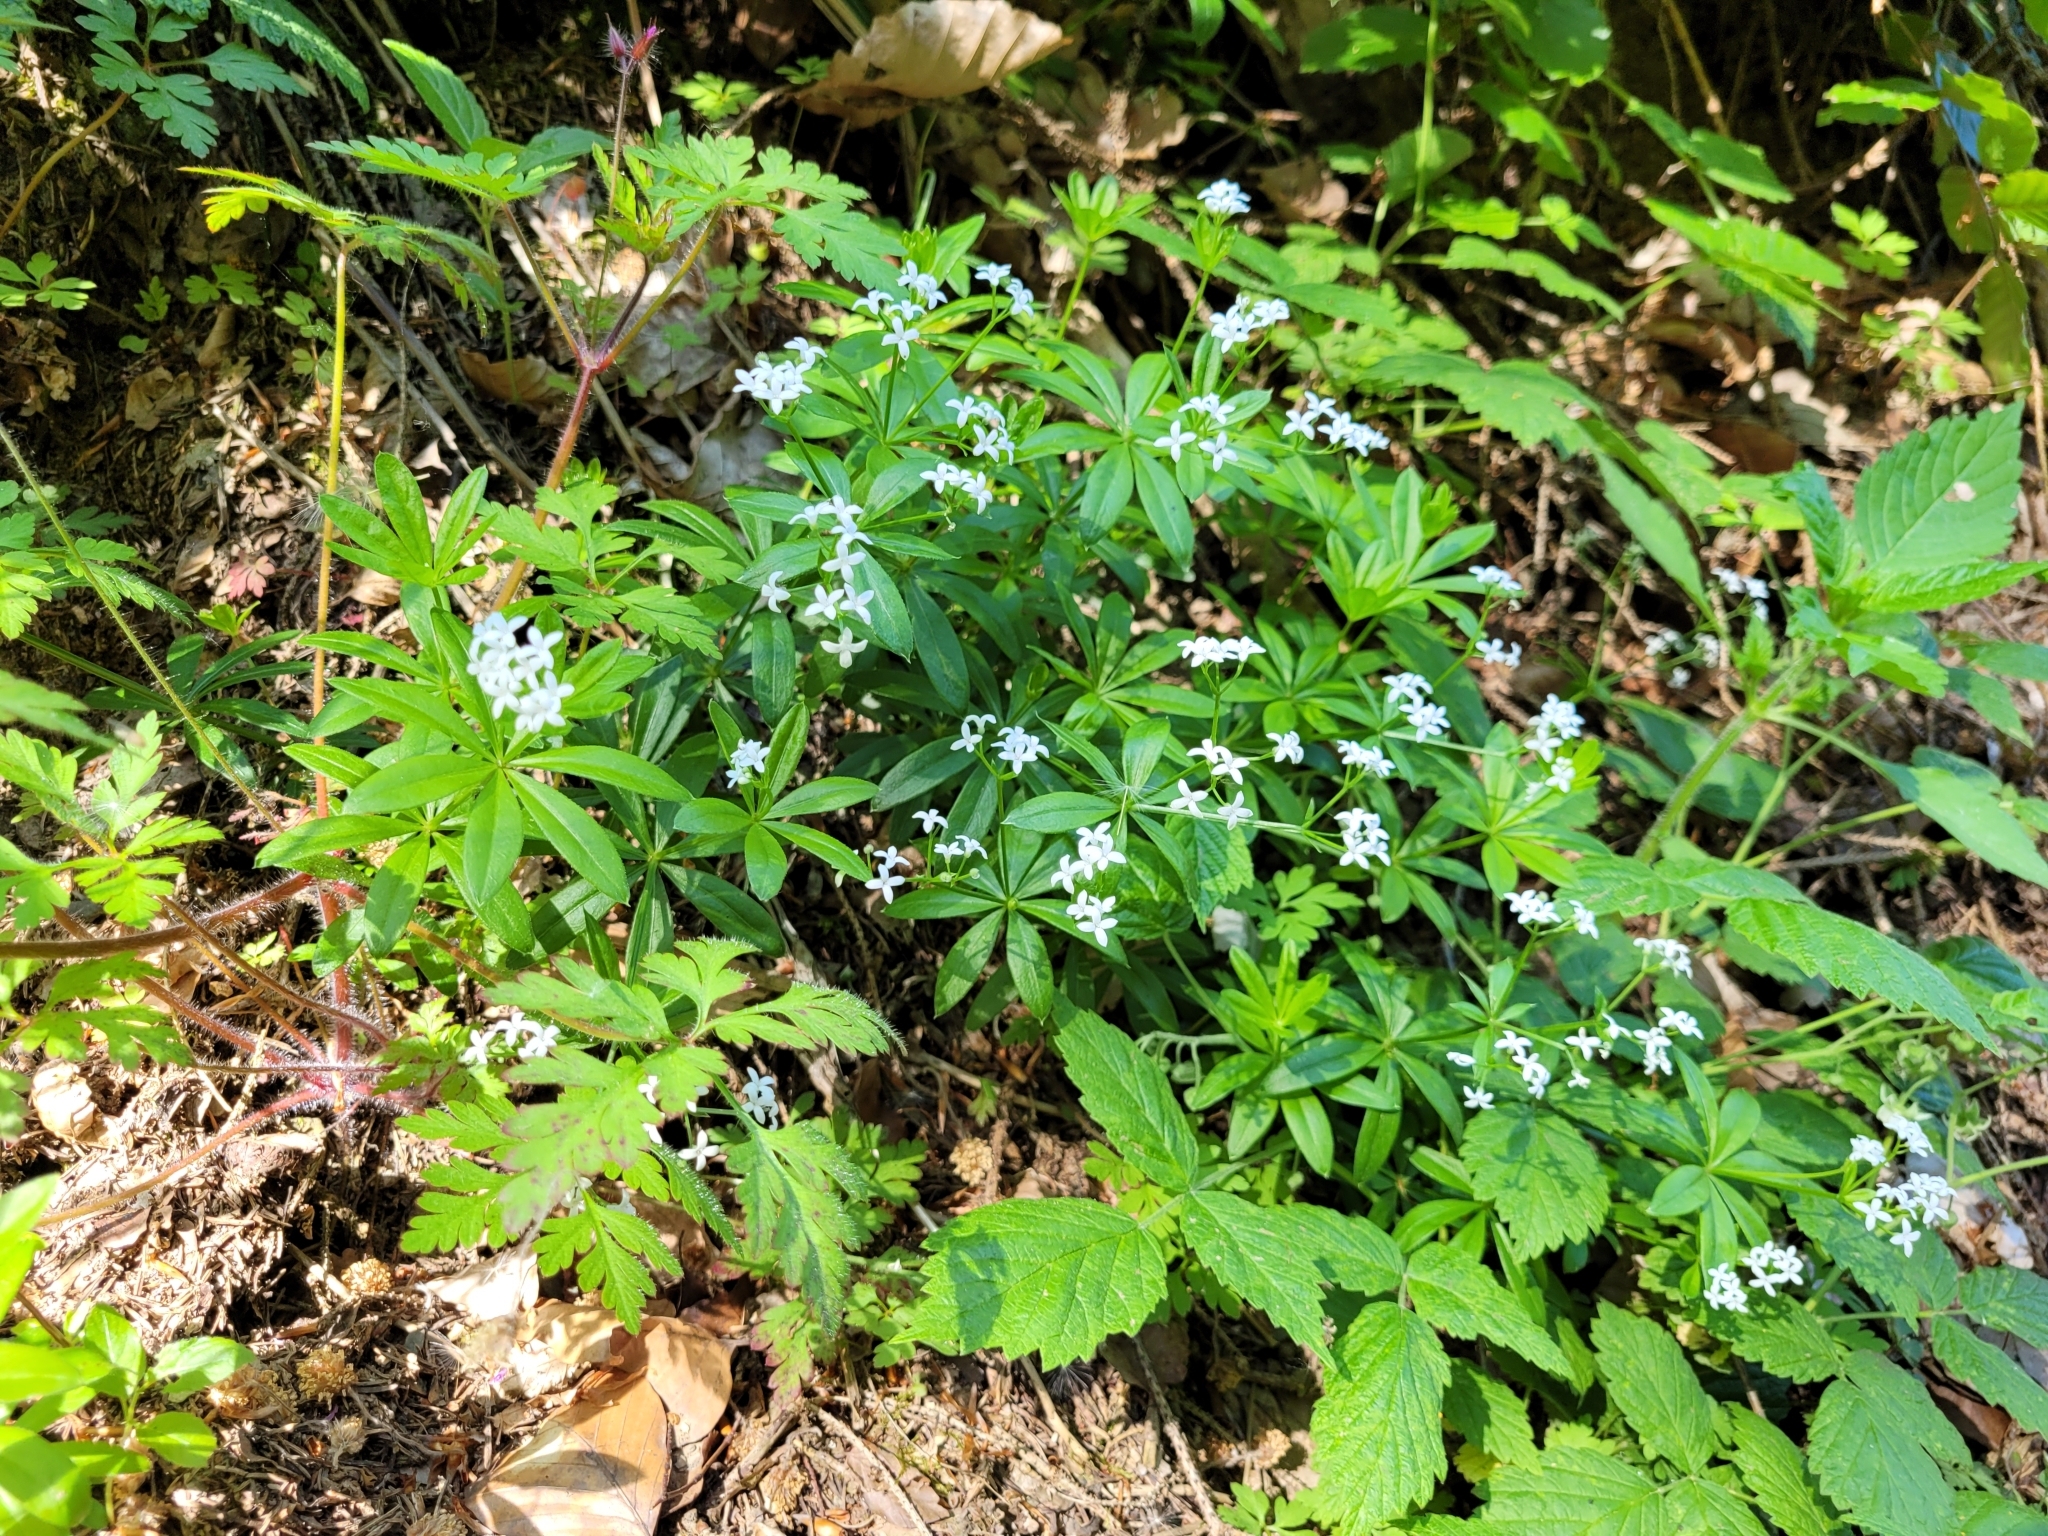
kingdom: Plantae
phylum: Tracheophyta
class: Magnoliopsida
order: Gentianales
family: Rubiaceae
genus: Galium
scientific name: Galium odoratum
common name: Sweet woodruff
